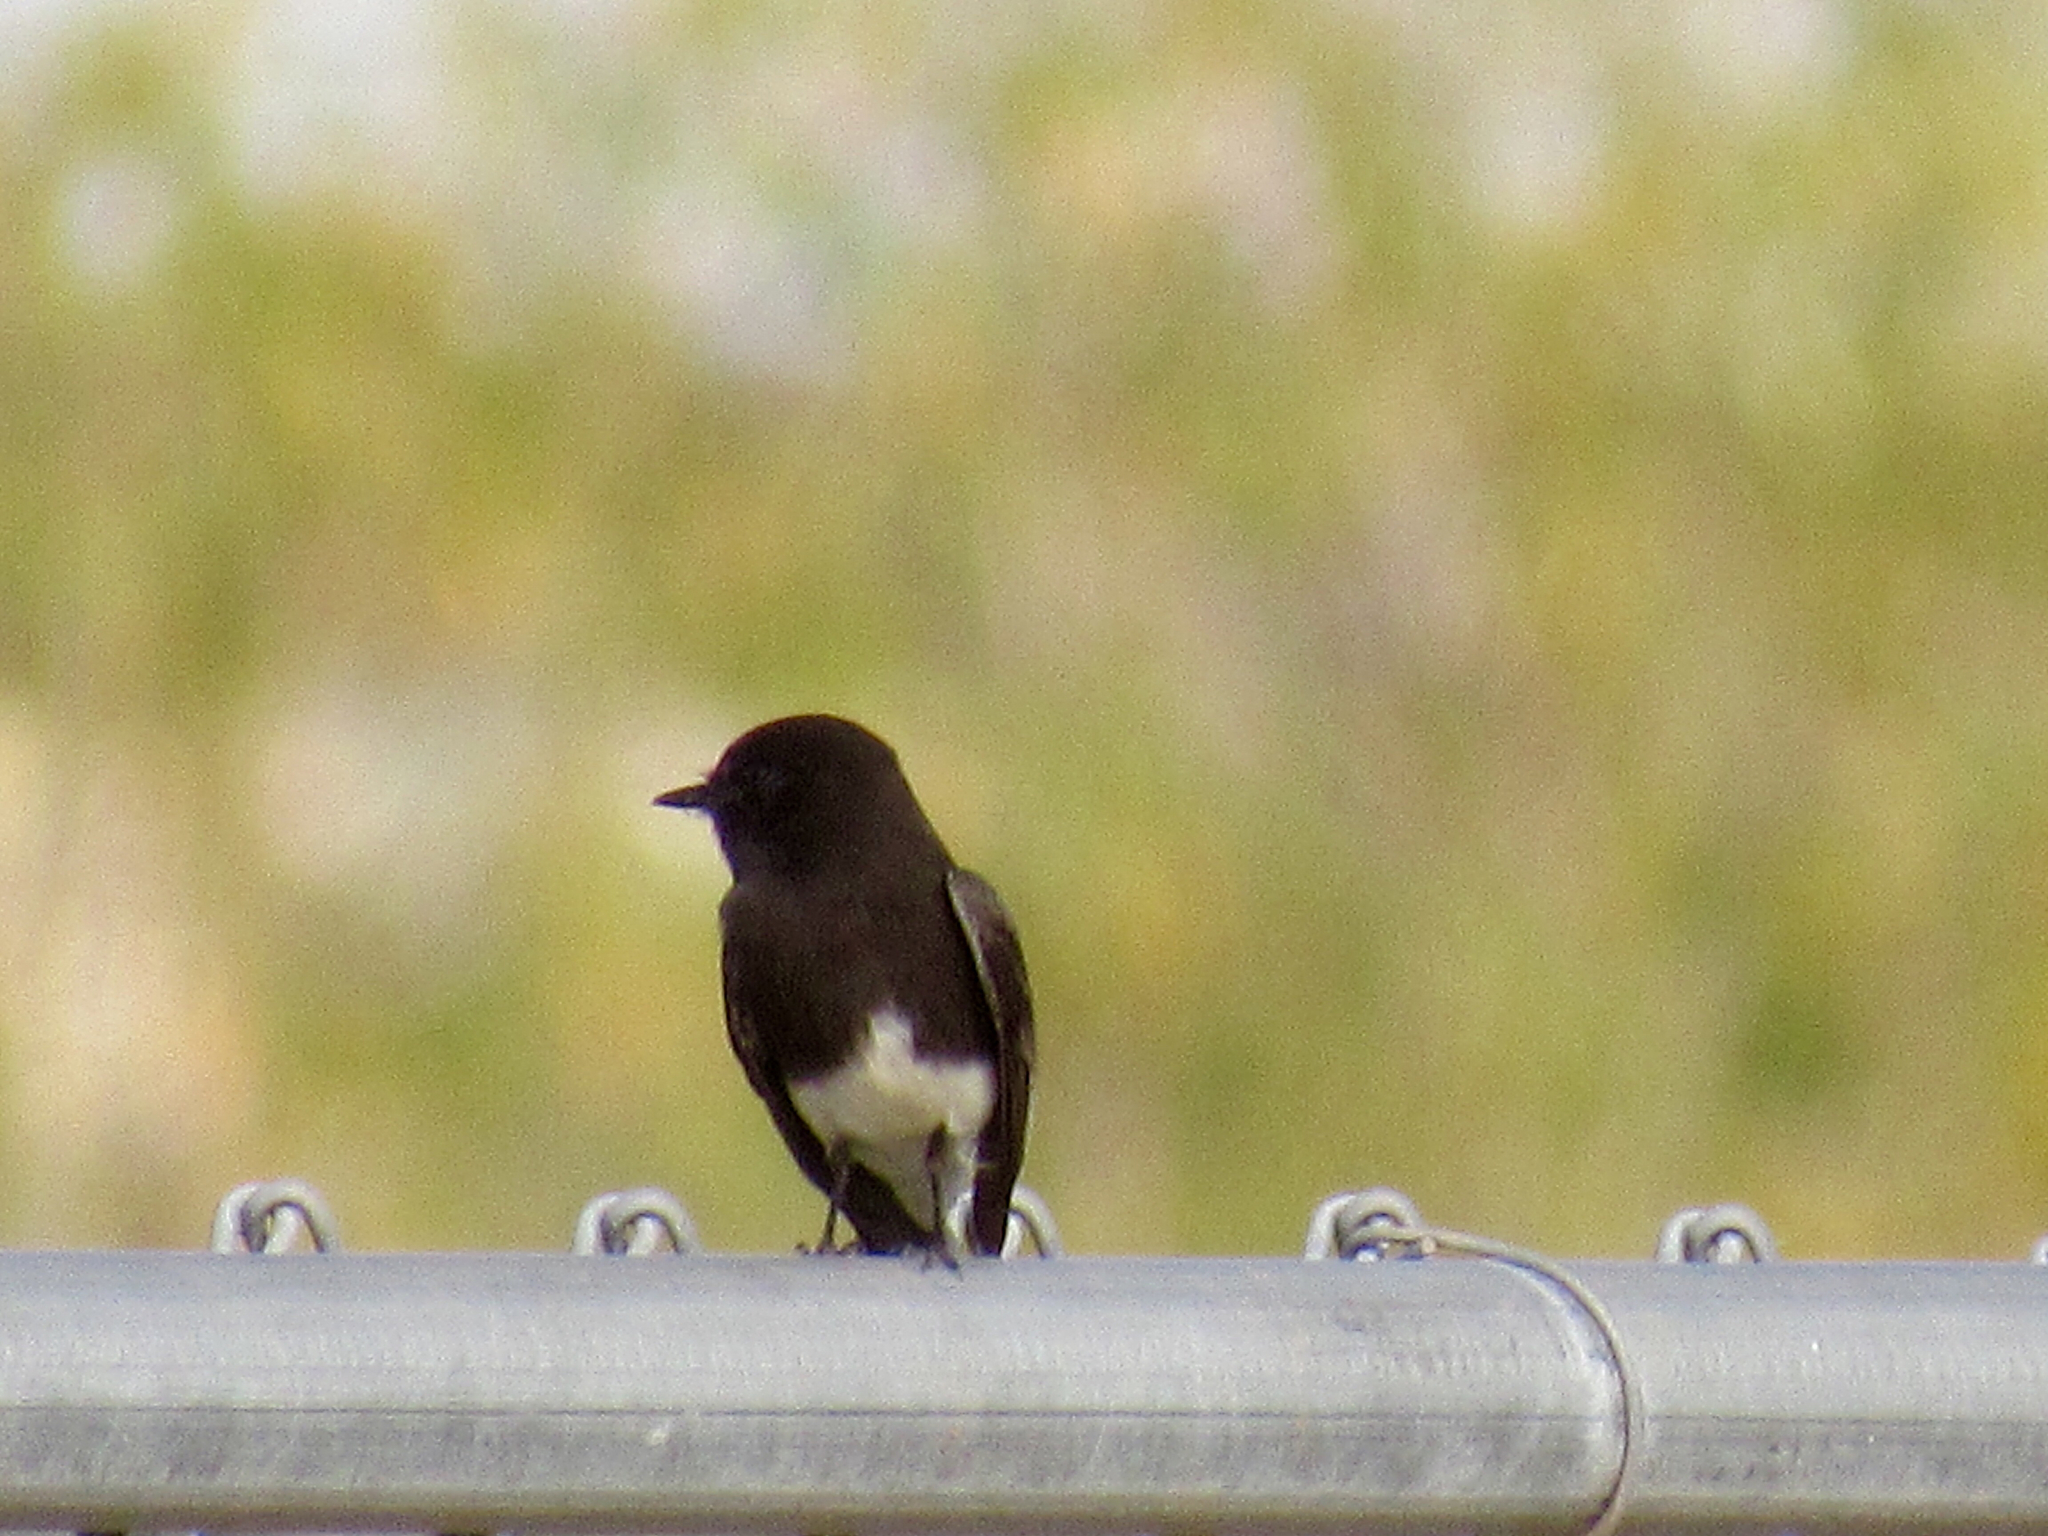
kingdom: Animalia
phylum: Chordata
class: Aves
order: Passeriformes
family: Tyrannidae
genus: Sayornis
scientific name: Sayornis nigricans
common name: Black phoebe
